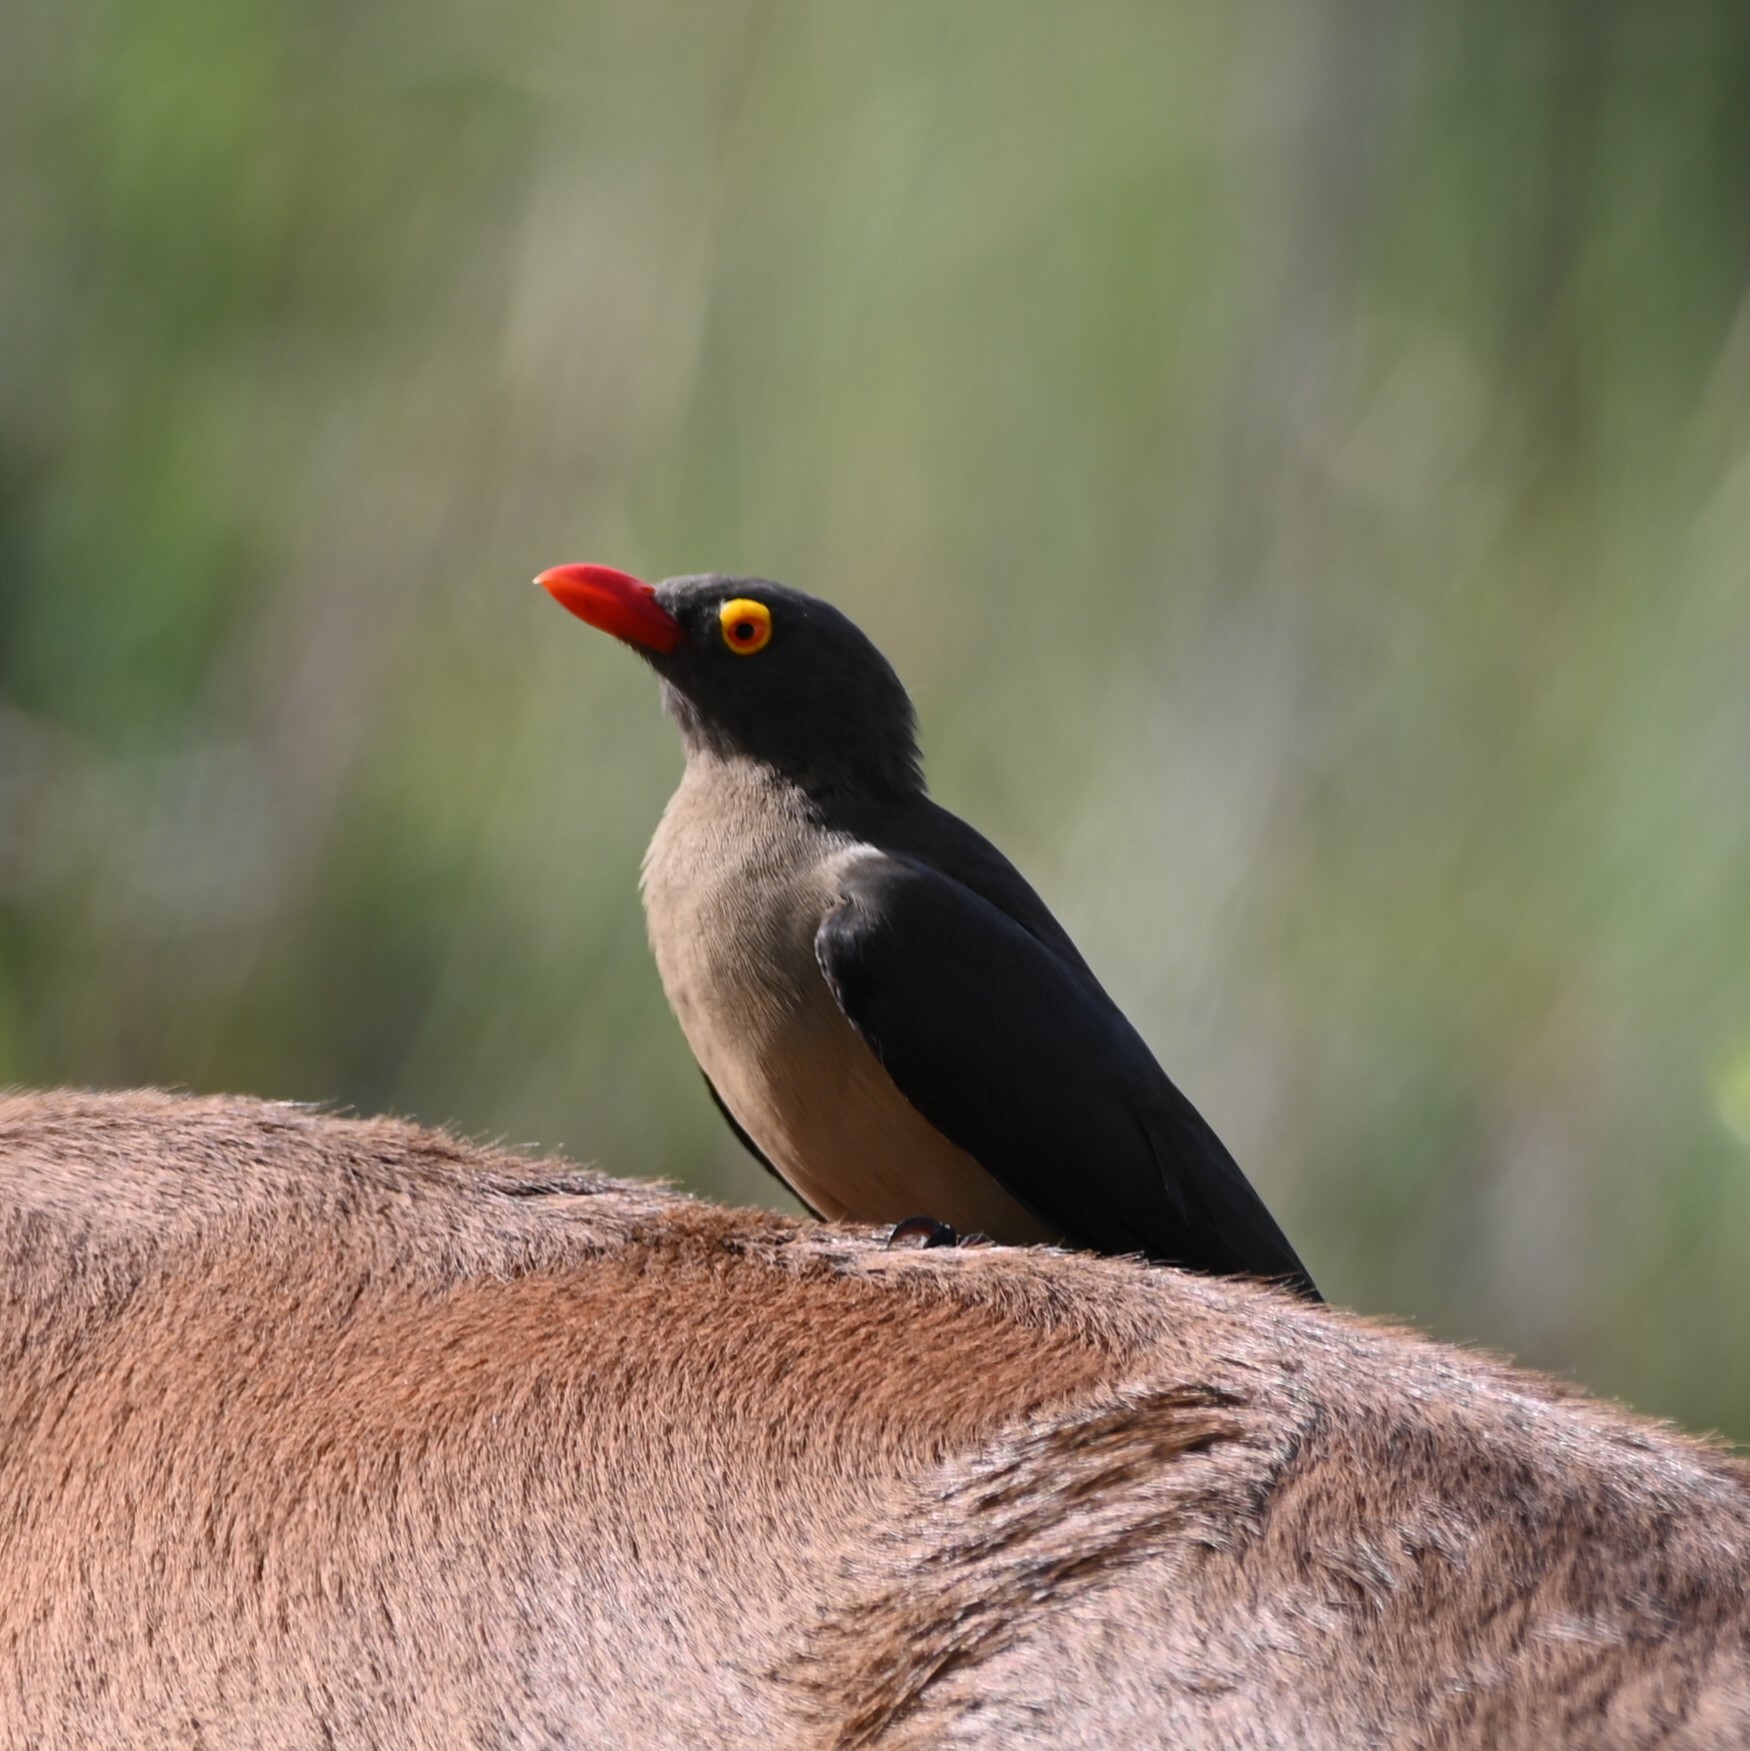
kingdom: Animalia
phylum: Chordata
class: Aves
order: Passeriformes
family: Buphagidae
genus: Buphagus
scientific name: Buphagus erythrorhynchus
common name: Red-billed oxpecker
